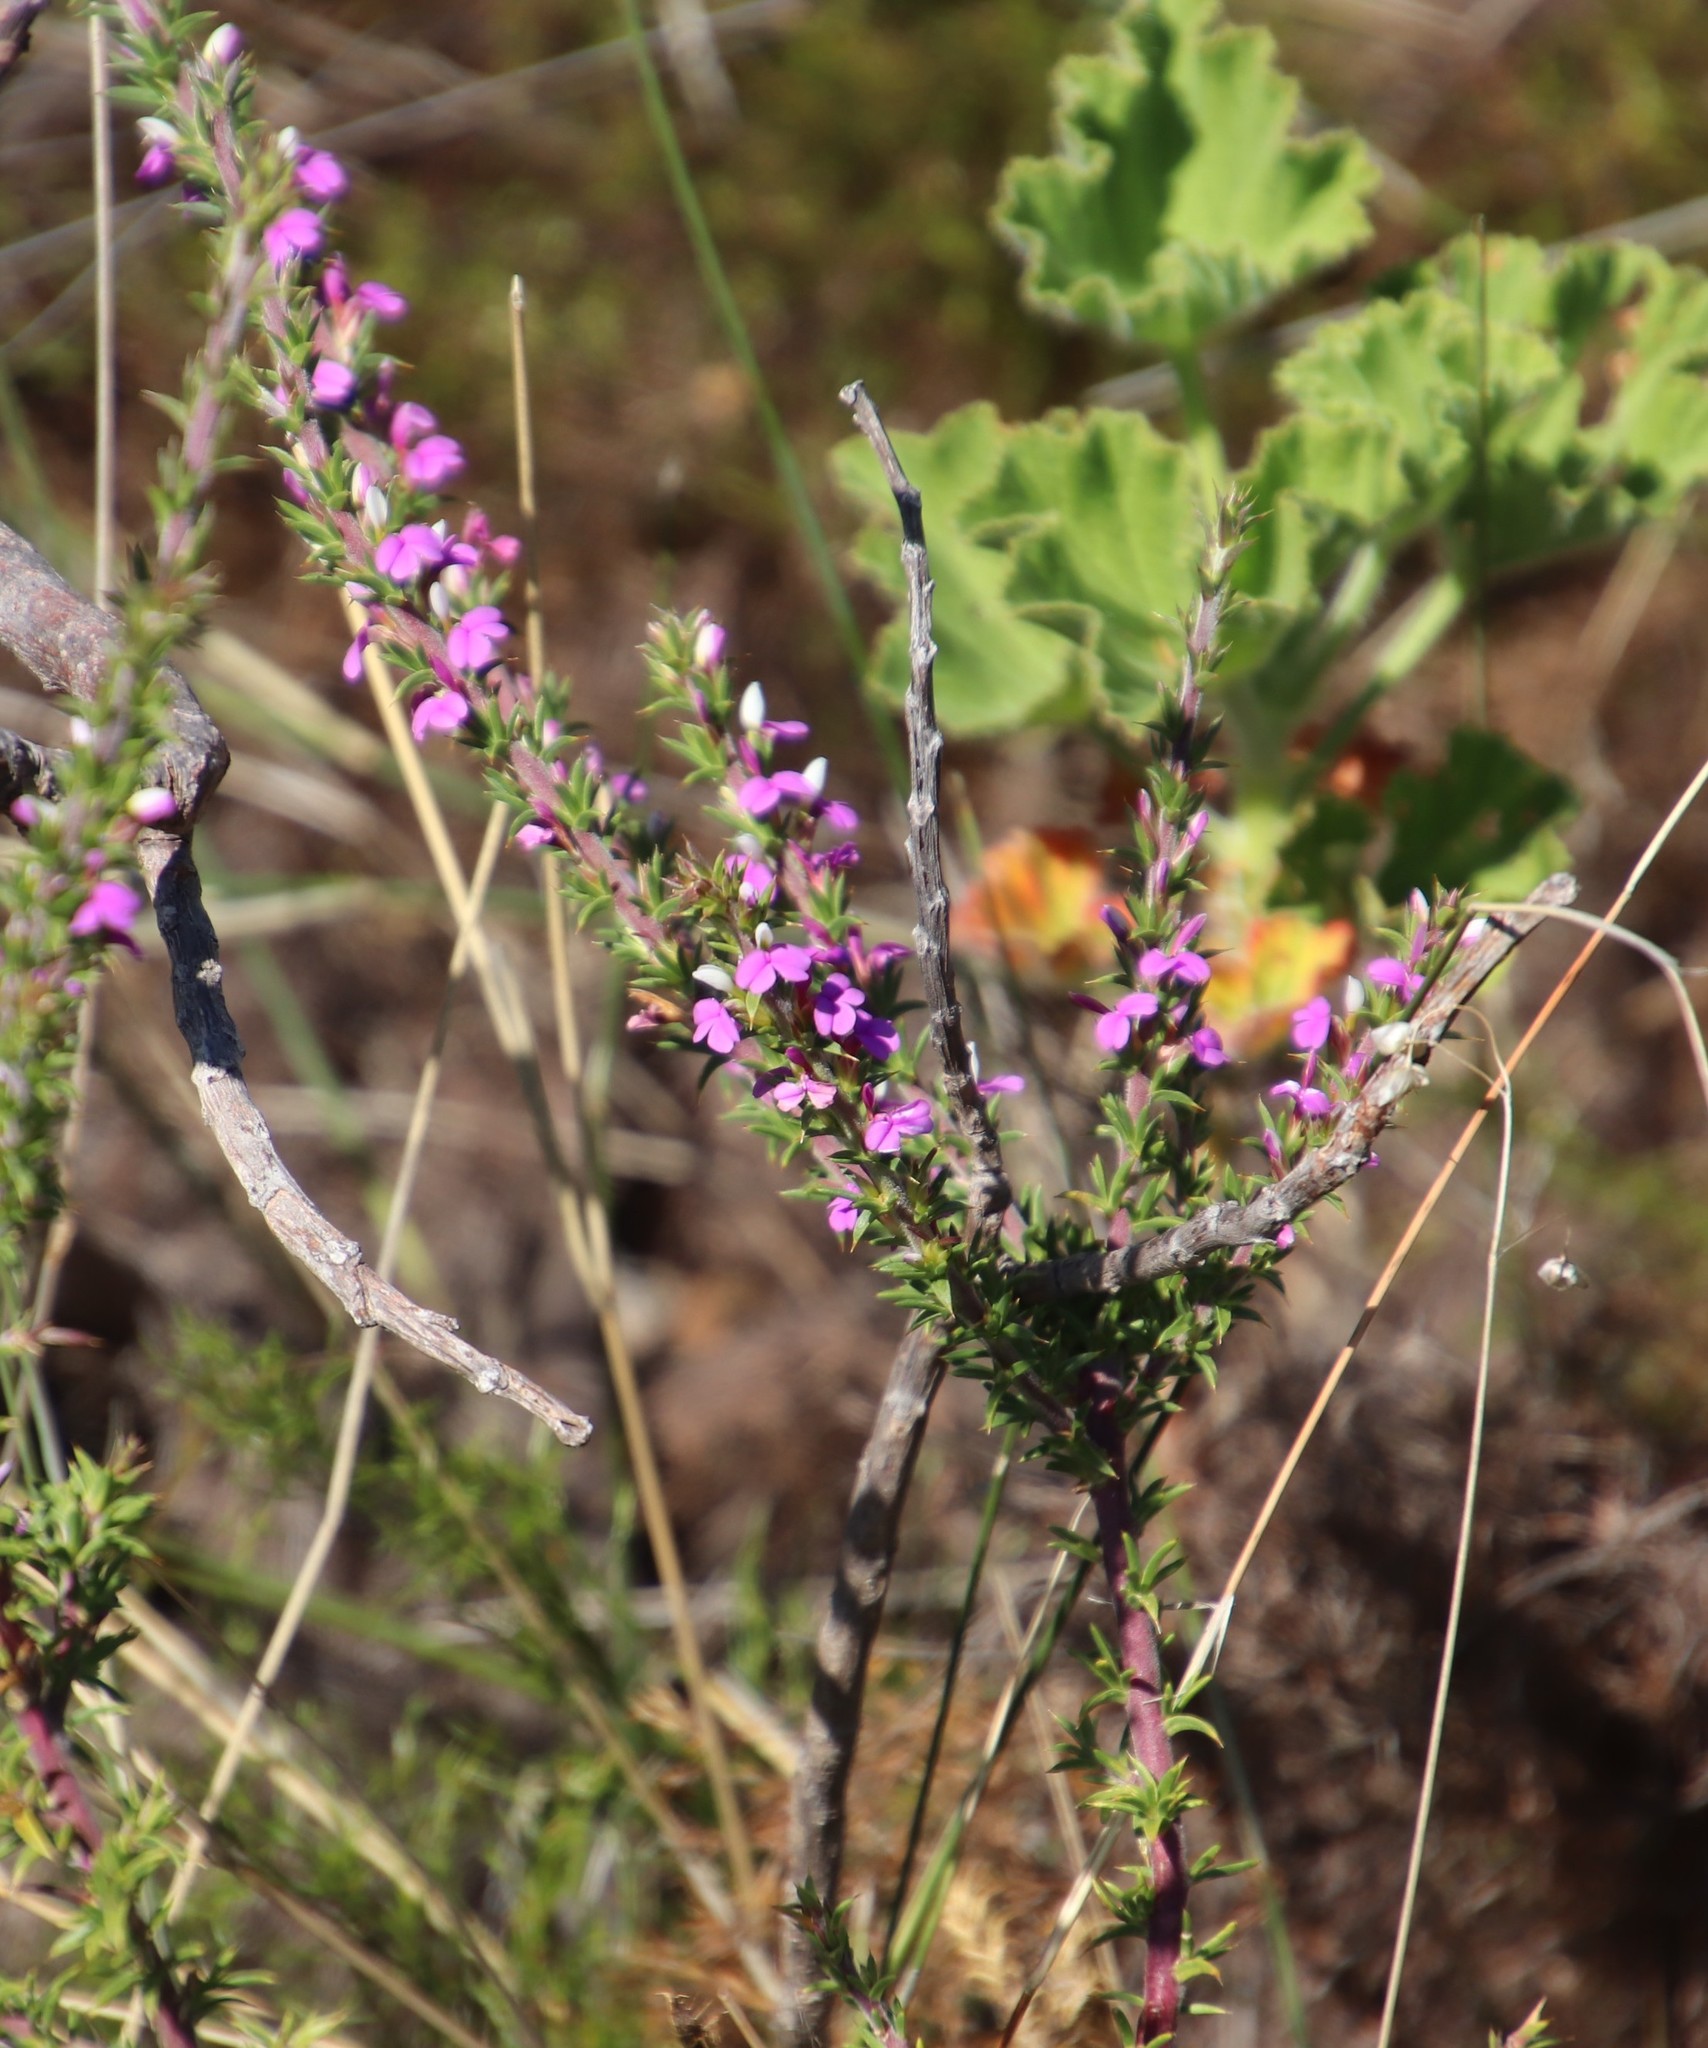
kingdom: Plantae
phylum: Tracheophyta
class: Magnoliopsida
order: Fabales
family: Polygalaceae
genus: Muraltia
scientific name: Muraltia heisteria
